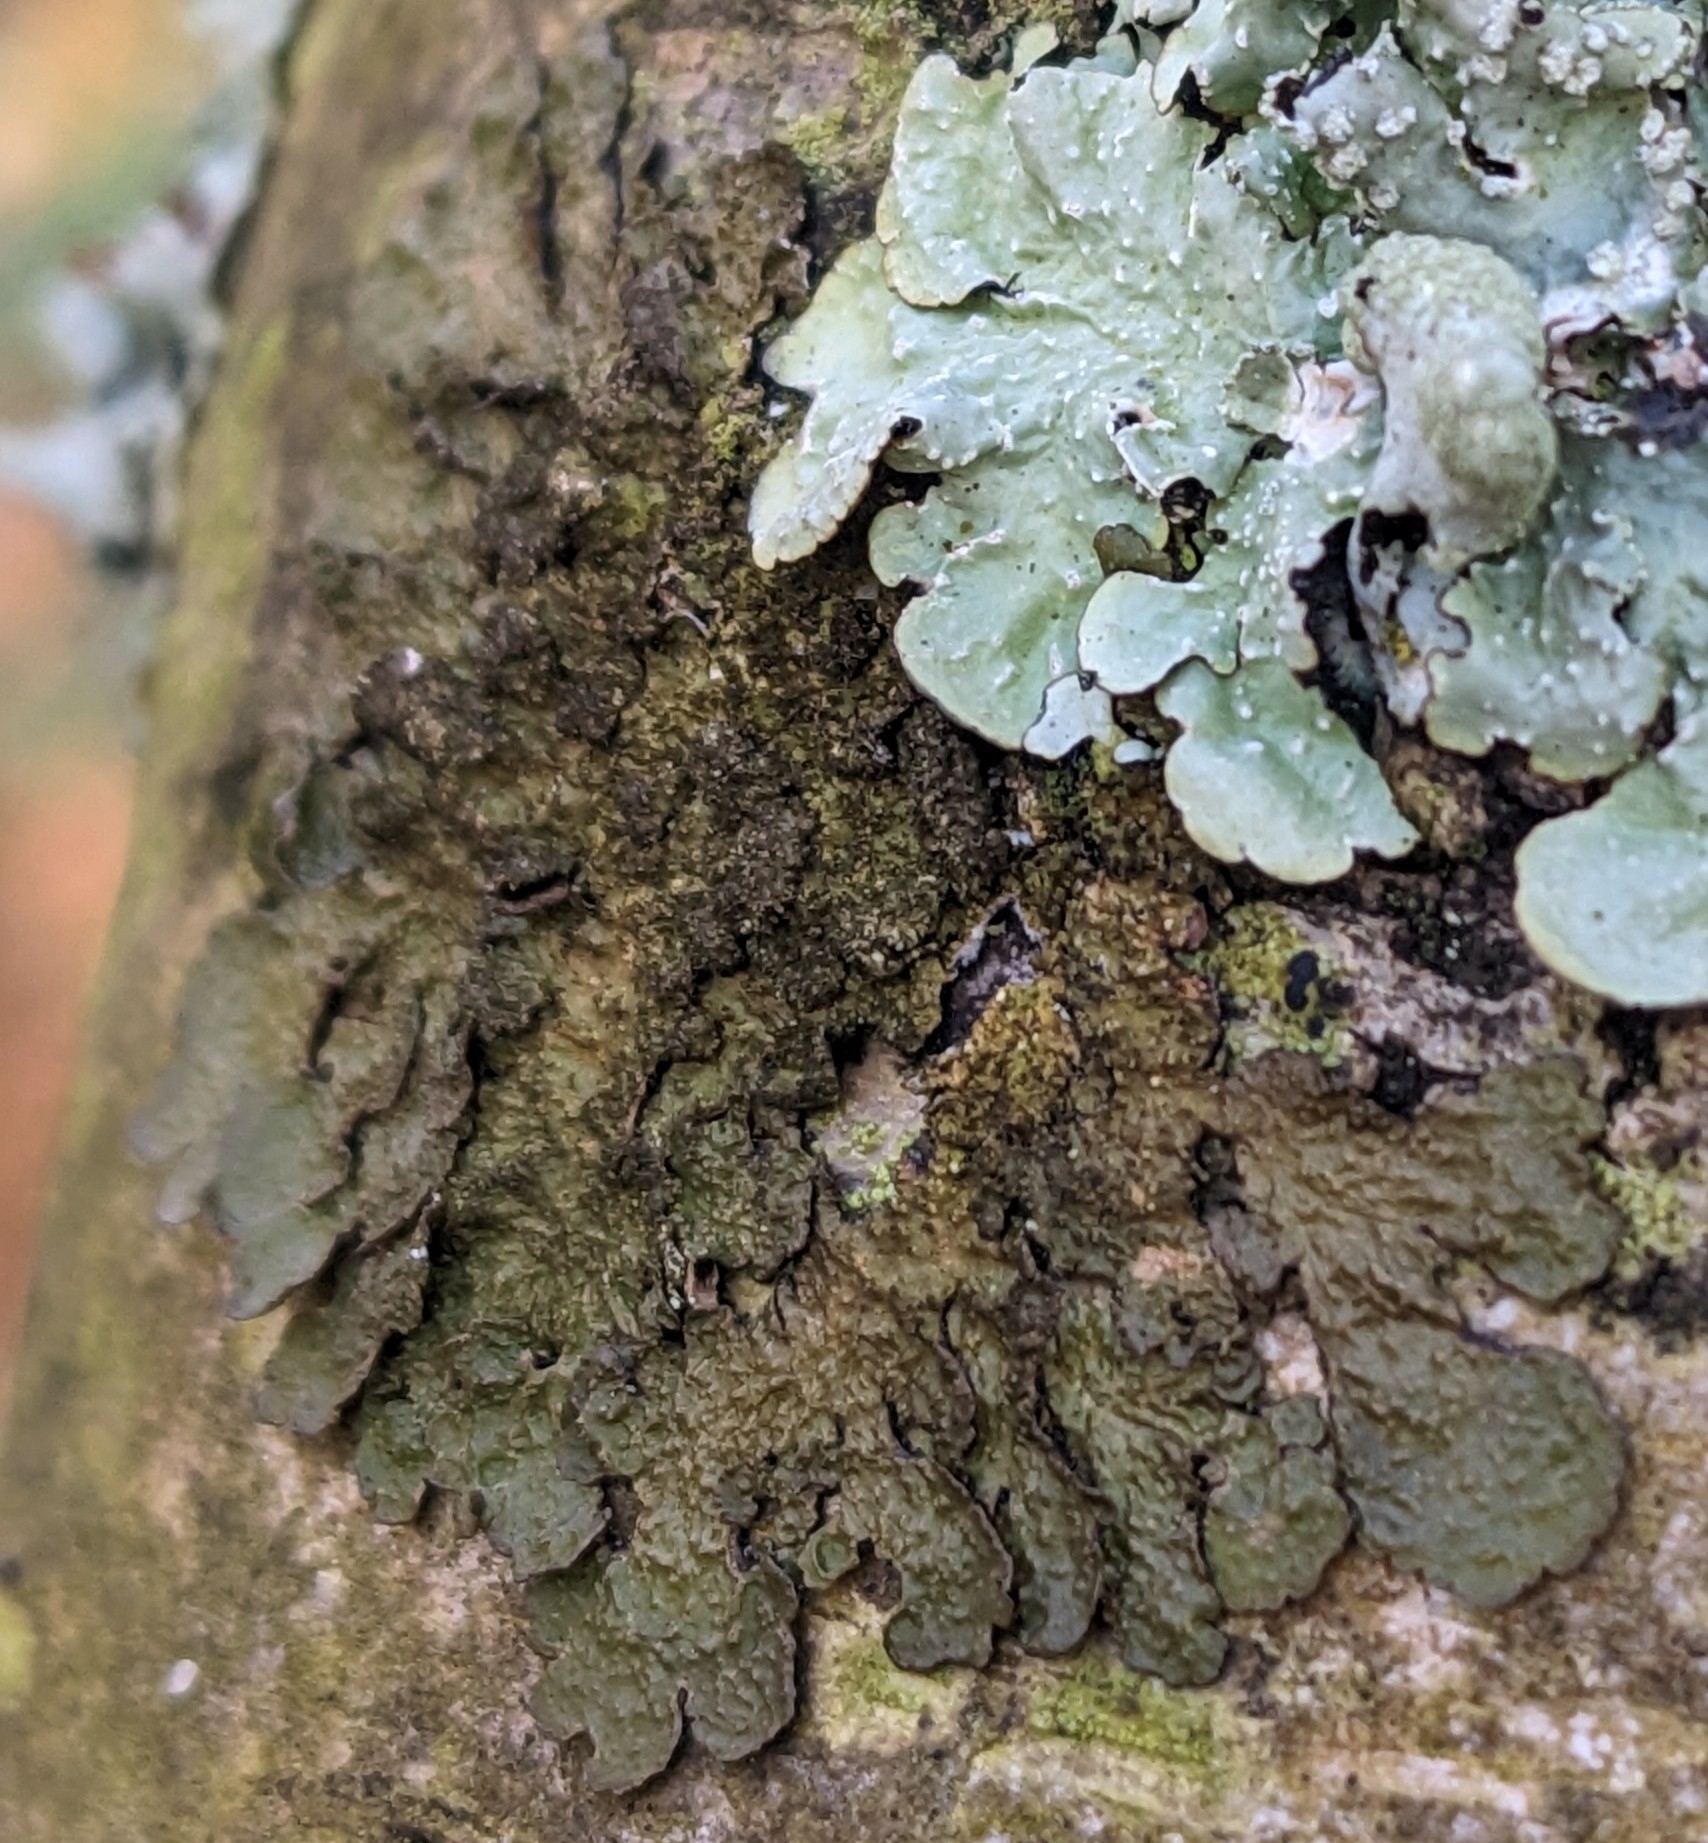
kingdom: Fungi
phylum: Ascomycota
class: Lecanoromycetes
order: Lecanorales
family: Parmeliaceae
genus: Melanelixia
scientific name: Melanelixia subaurifera
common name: Abraded camouflage lichen
